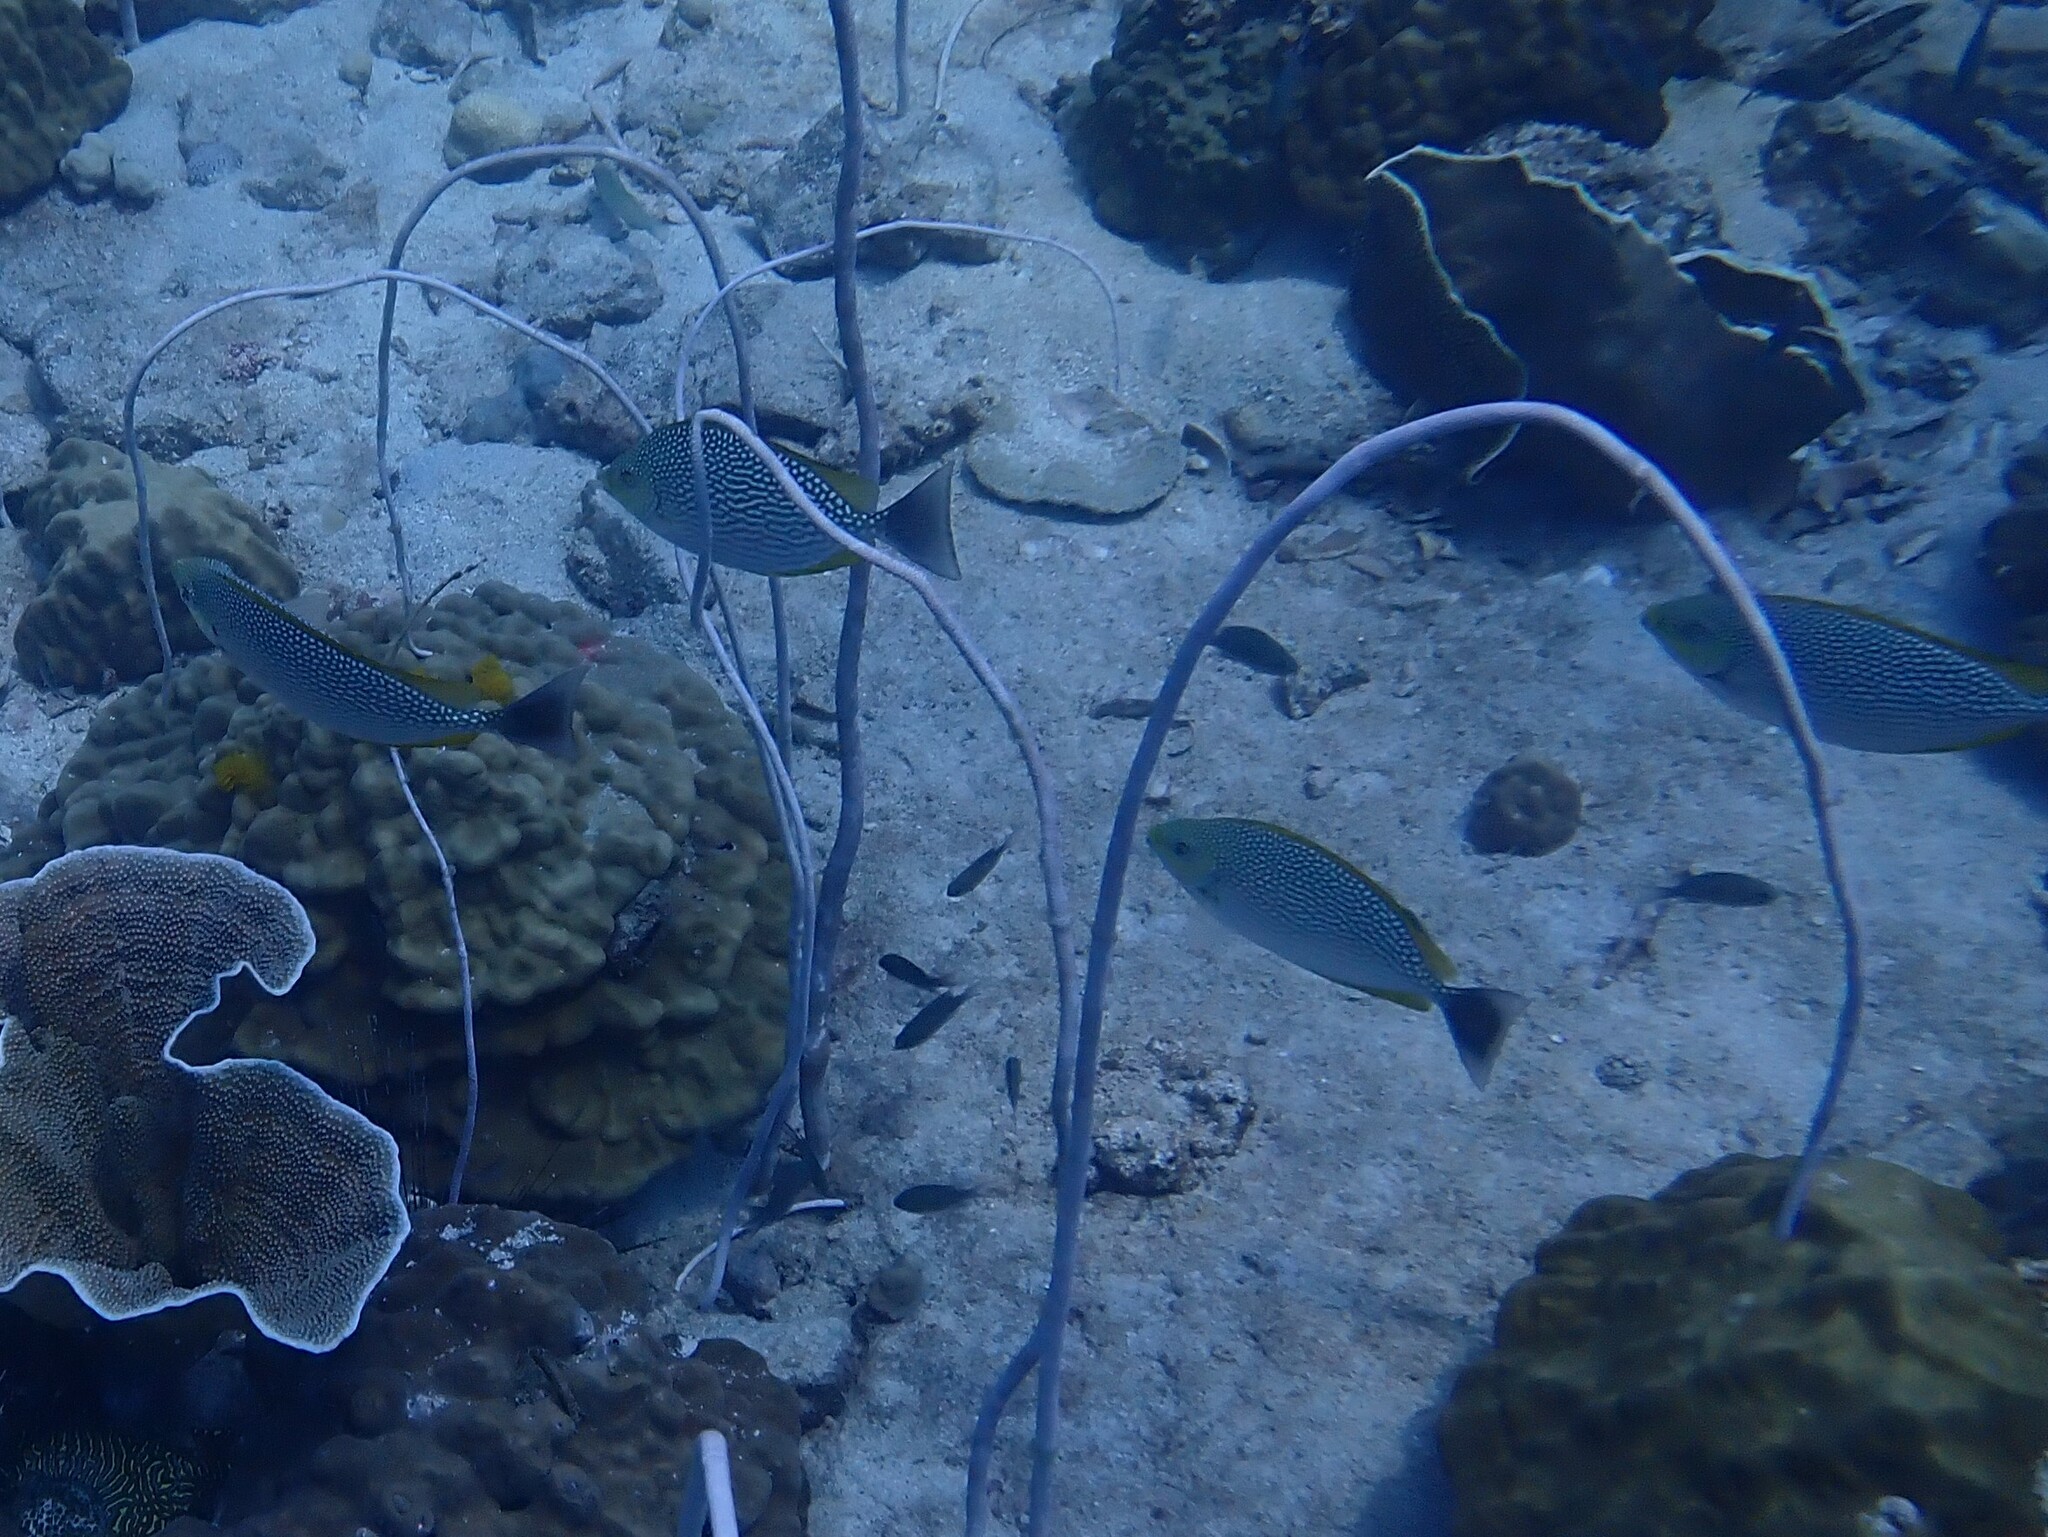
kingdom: Animalia
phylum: Chordata
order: Perciformes
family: Siganidae
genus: Siganus
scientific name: Siganus javus
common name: Java rabbitfish
